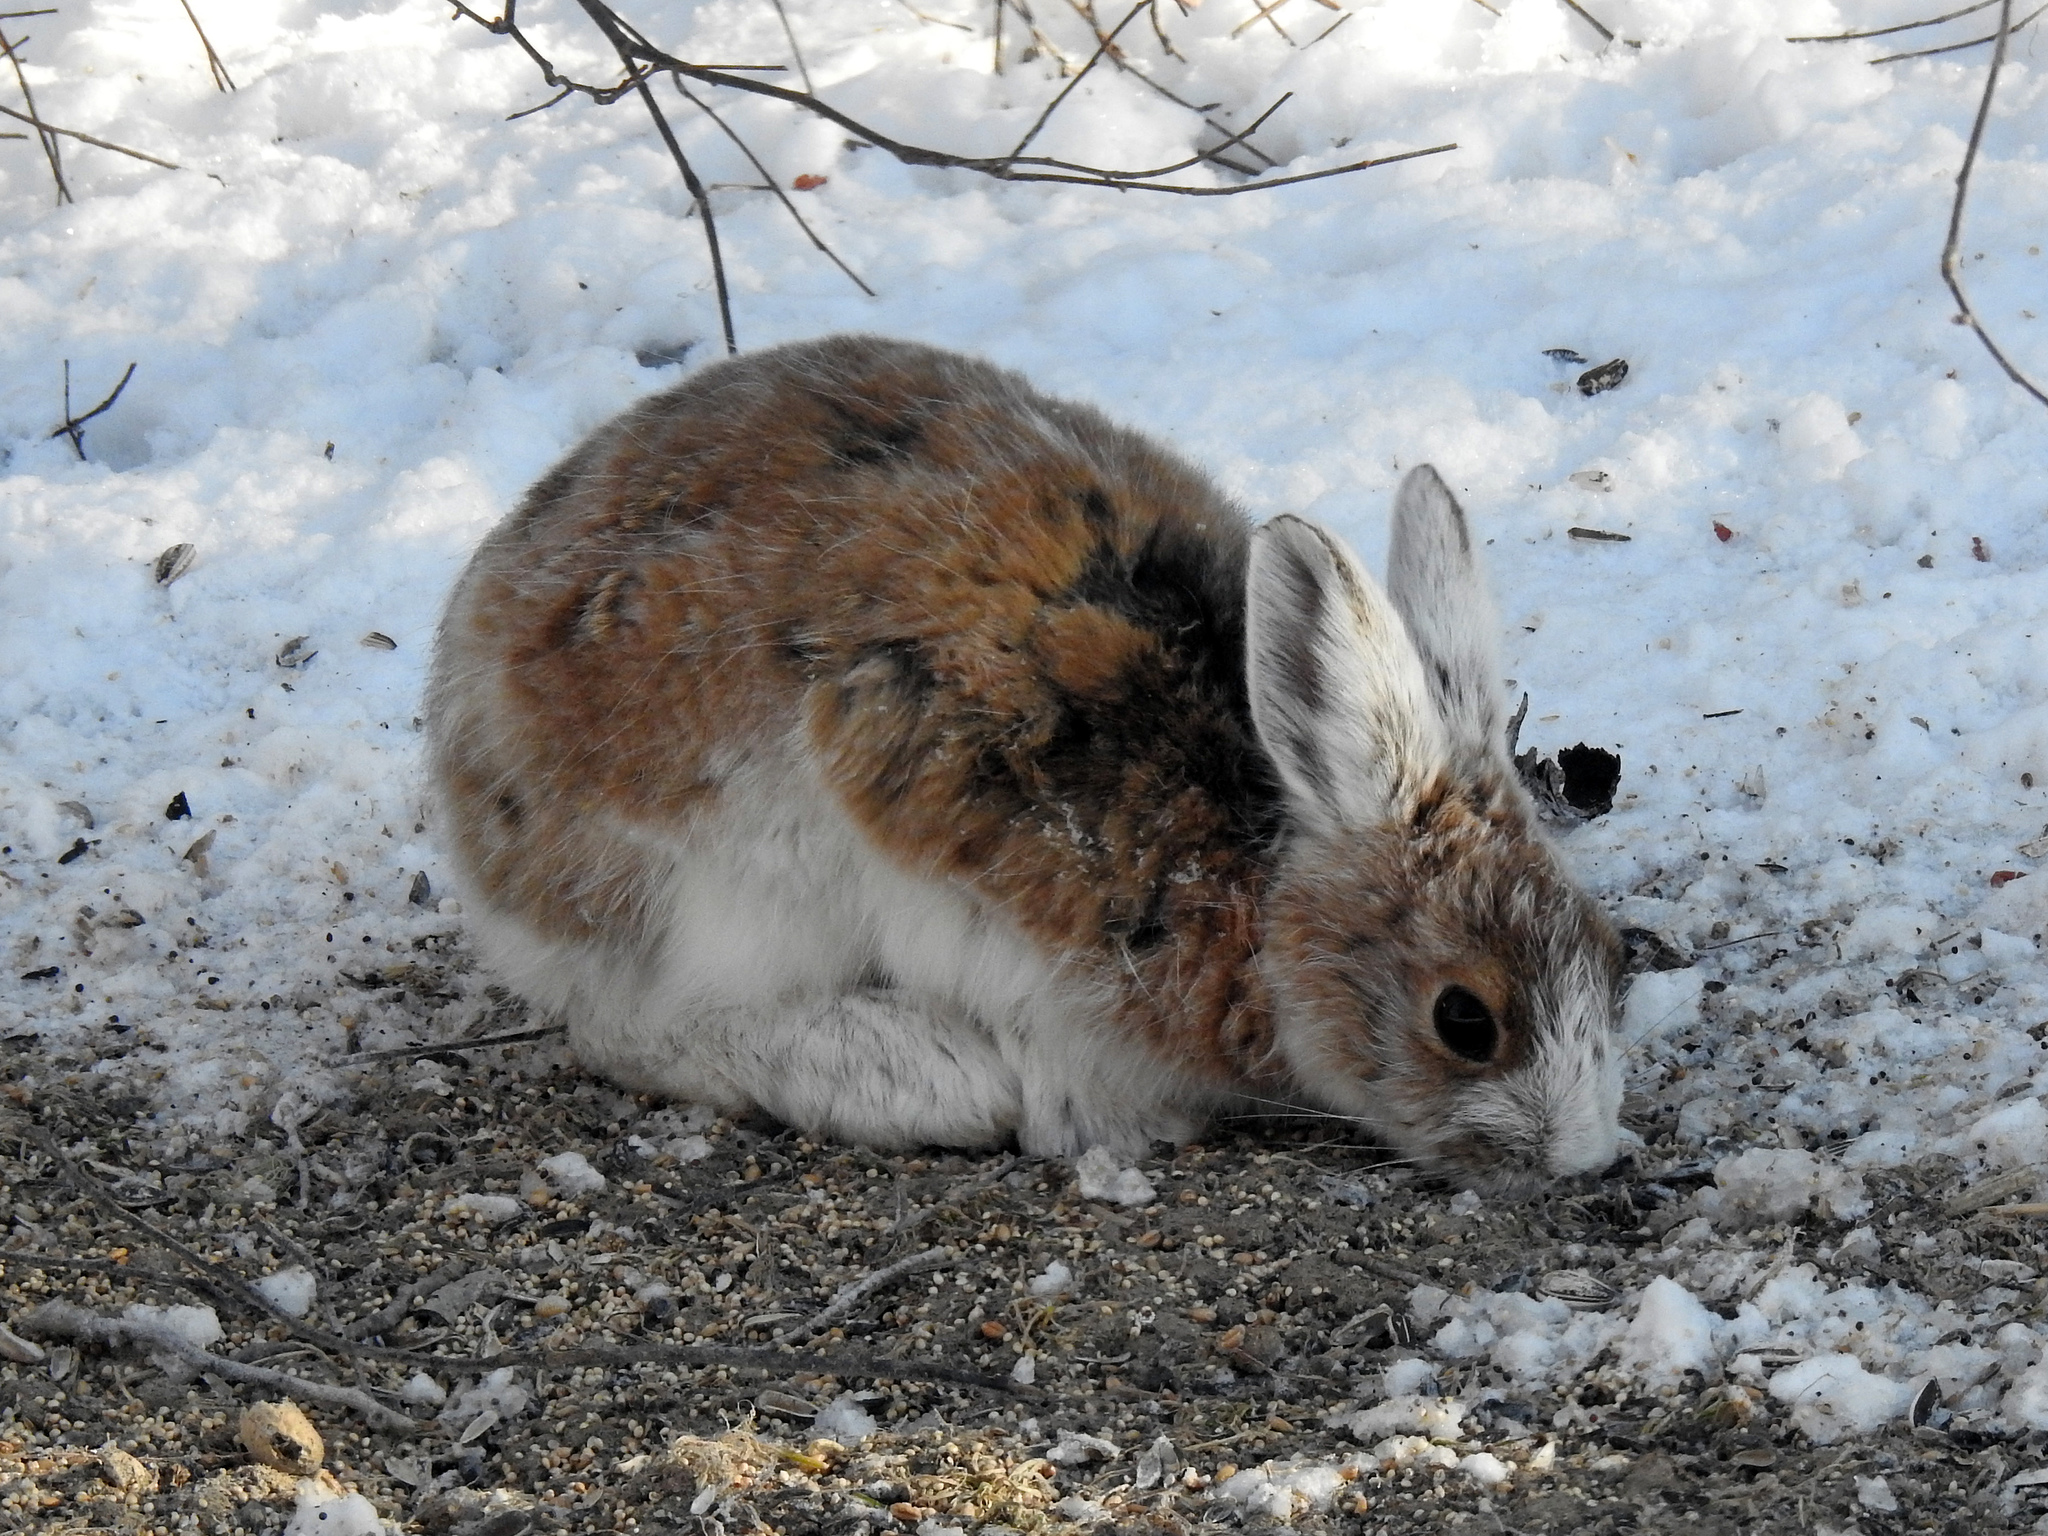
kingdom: Animalia
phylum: Chordata
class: Mammalia
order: Lagomorpha
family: Leporidae
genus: Lepus
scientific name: Lepus americanus
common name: Snowshoe hare
